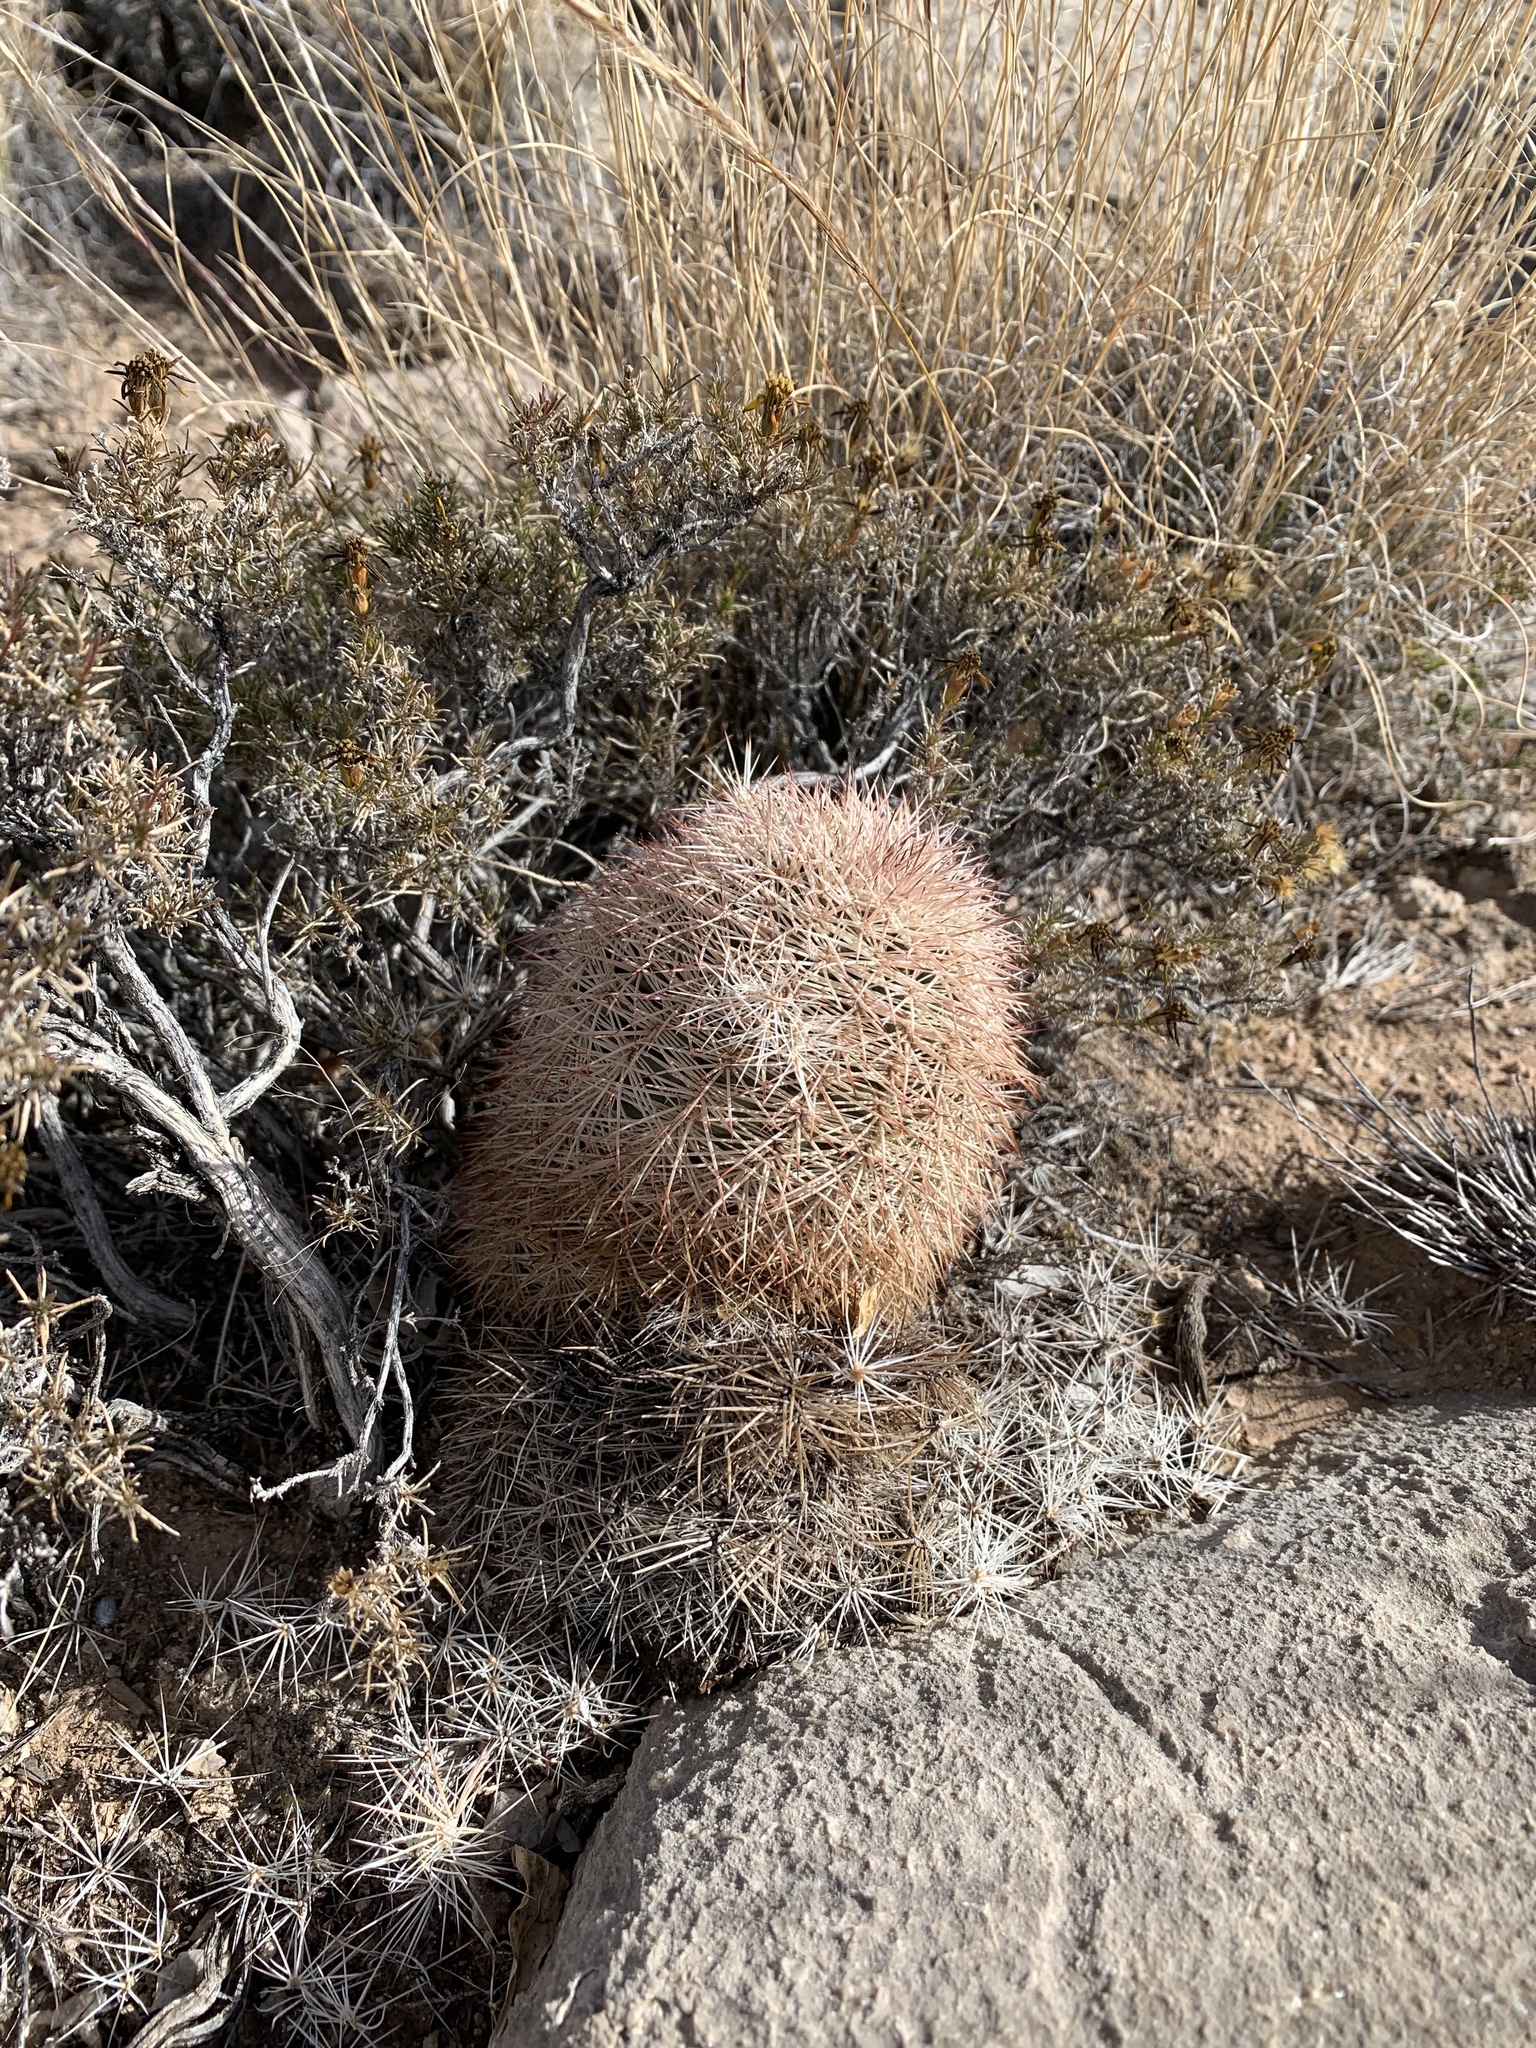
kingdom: Plantae
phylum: Tracheophyta
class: Magnoliopsida
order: Caryophyllales
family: Cactaceae
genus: Echinocereus
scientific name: Echinocereus dasyacanthus
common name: Spiny hedgehog cactus
